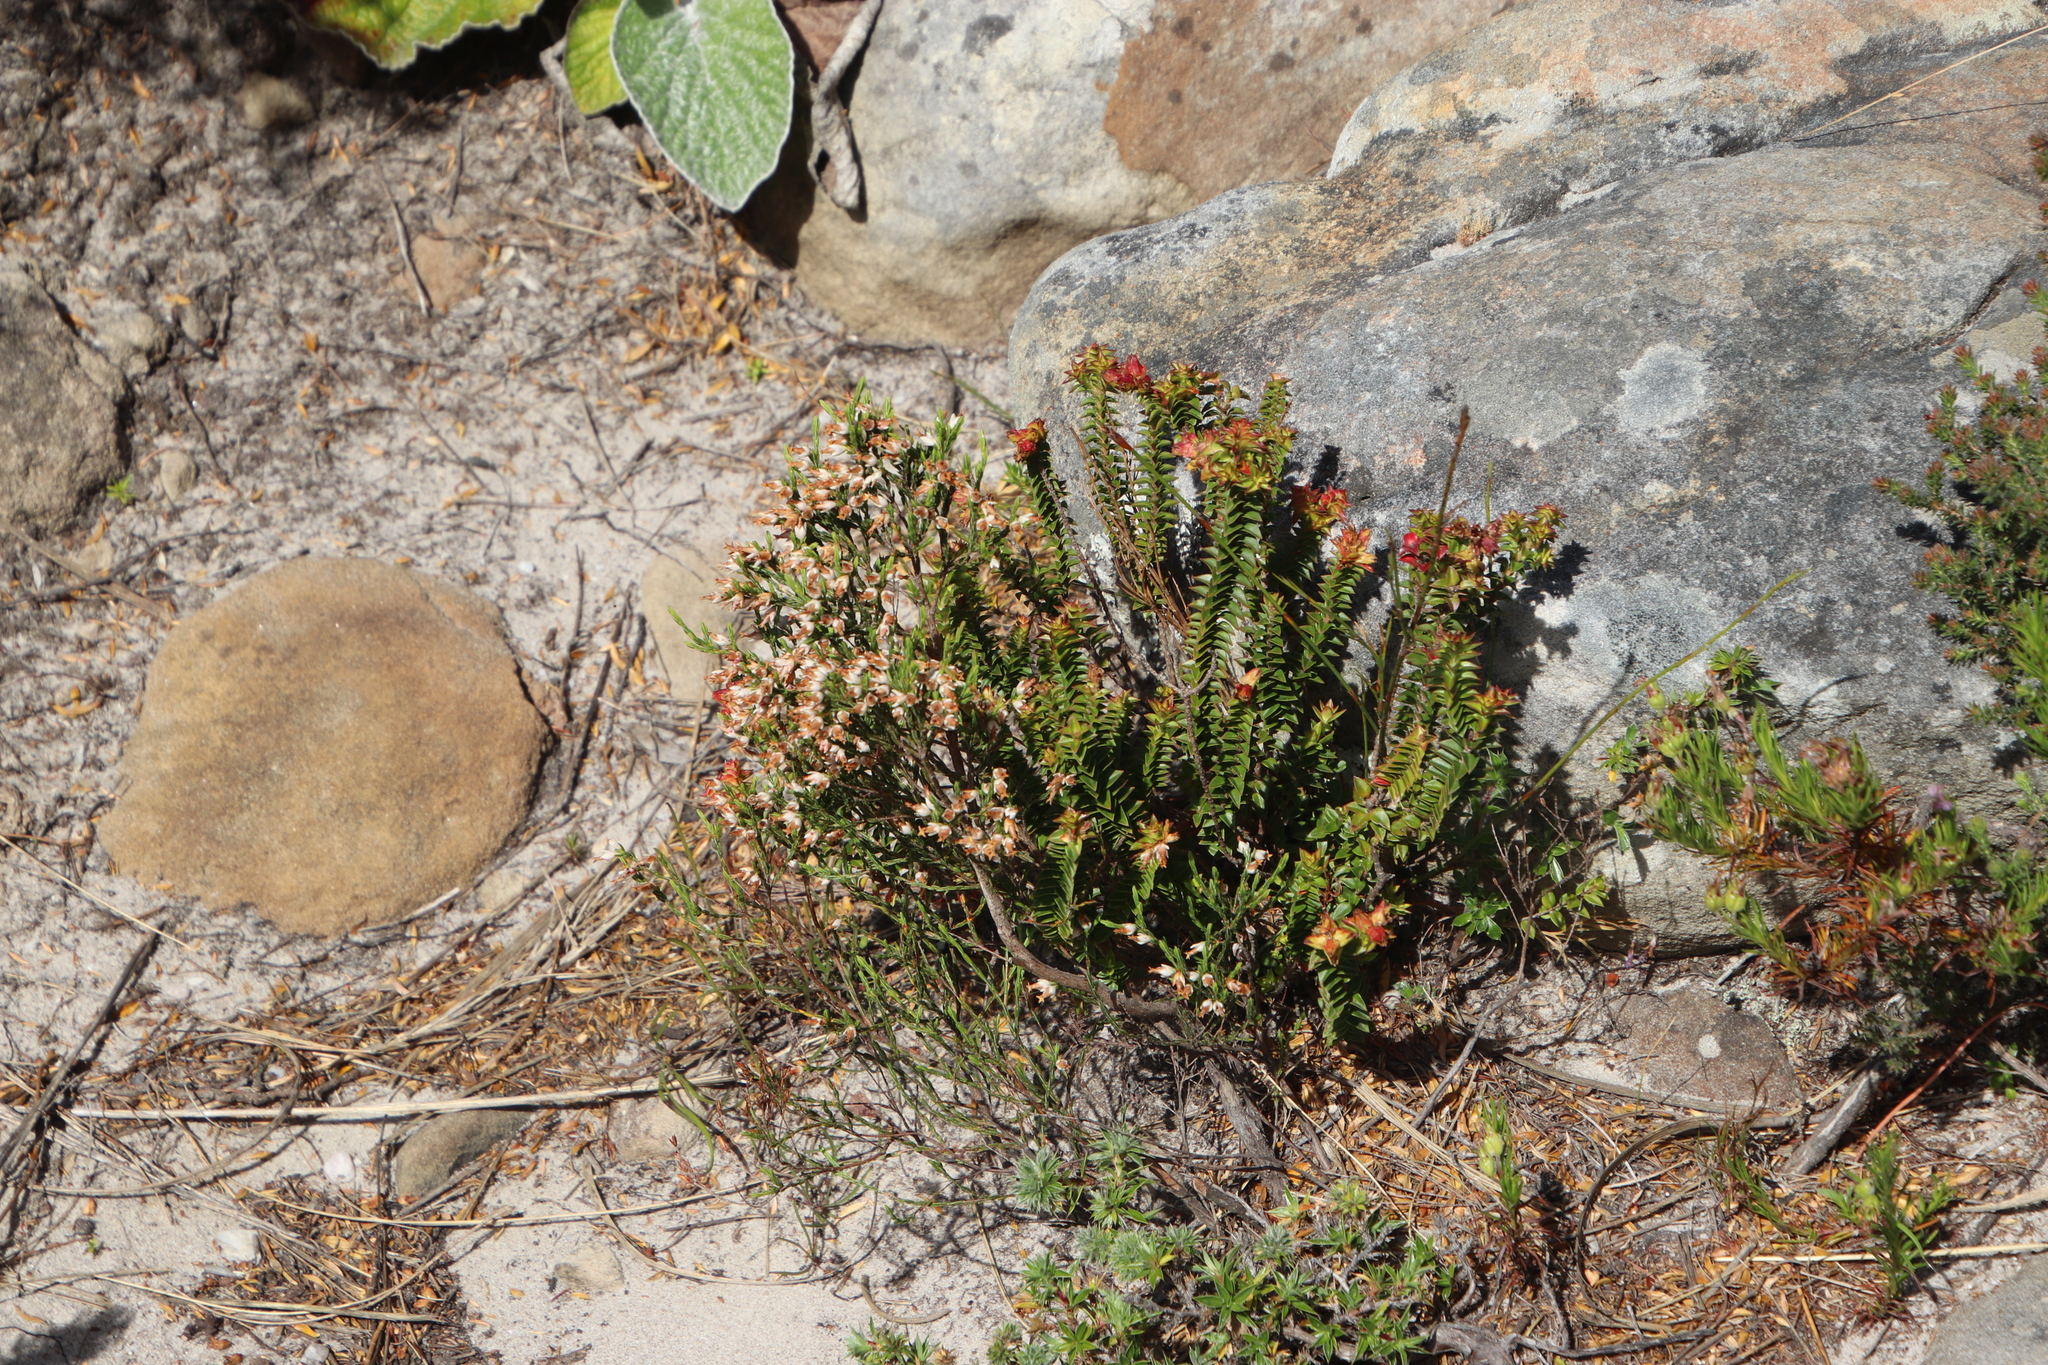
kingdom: Plantae
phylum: Tracheophyta
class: Magnoliopsida
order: Myrtales
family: Penaeaceae
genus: Penaea
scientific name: Penaea mucronata
